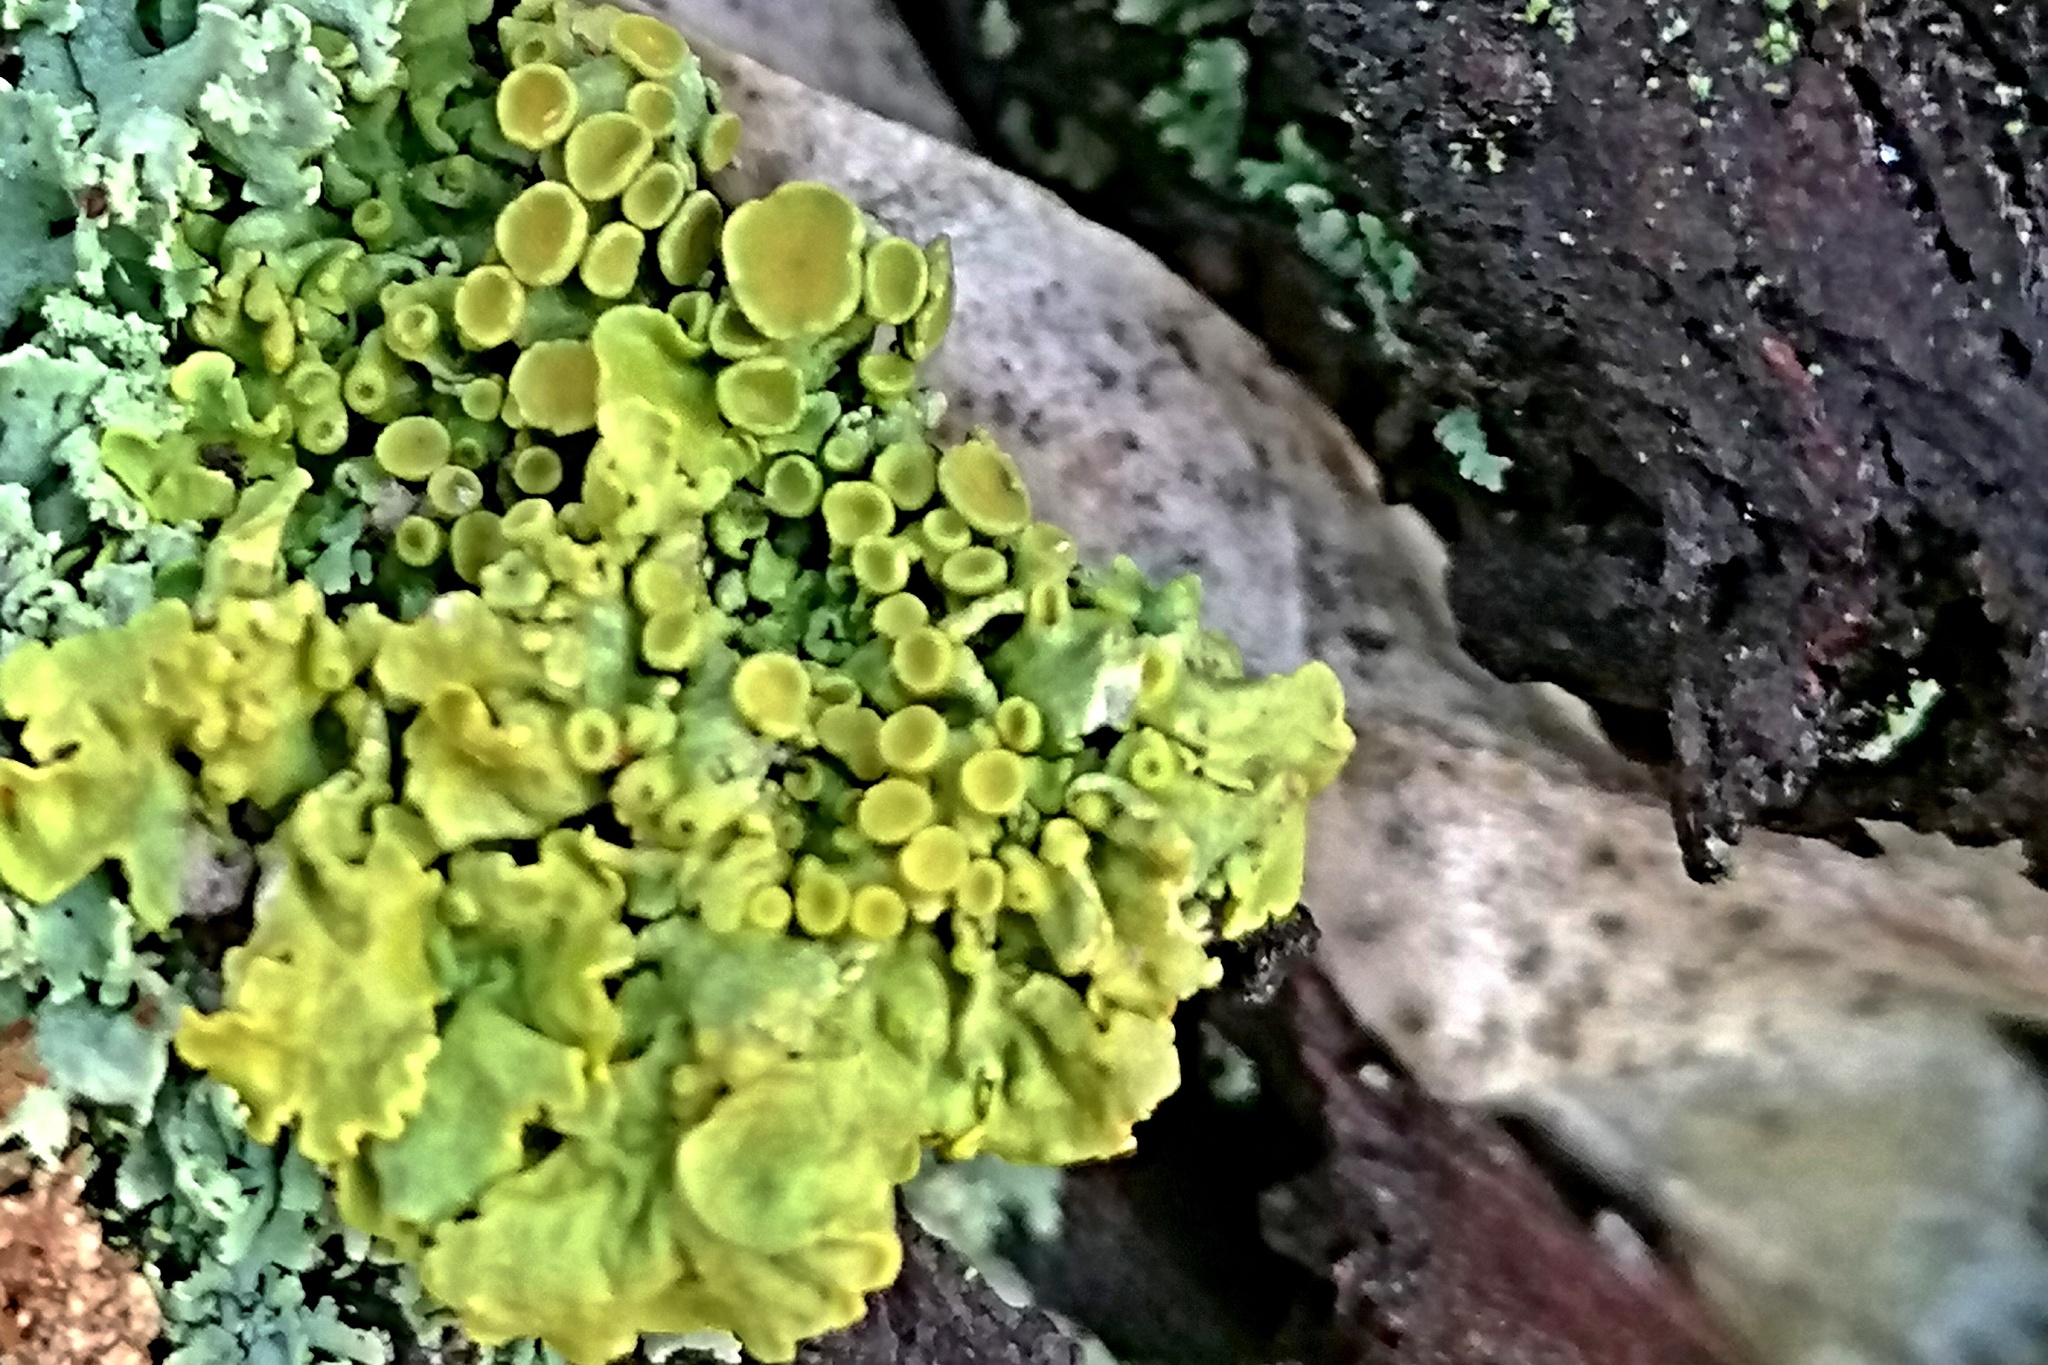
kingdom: Fungi
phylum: Ascomycota
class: Lecanoromycetes
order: Teloschistales
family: Teloschistaceae
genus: Xanthoria
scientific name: Xanthoria parietina
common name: Common orange lichen
